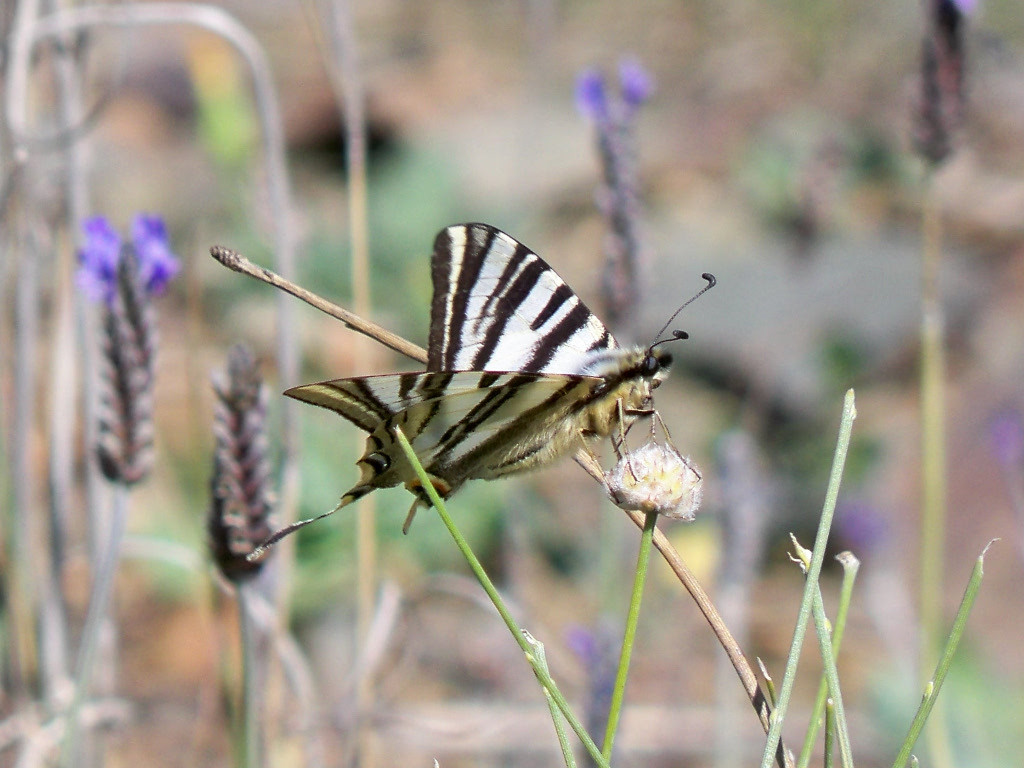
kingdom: Animalia
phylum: Arthropoda
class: Insecta
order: Lepidoptera
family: Papilionidae
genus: Iphiclides
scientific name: Iphiclides feisthamelii
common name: Iberian scarce swallowtail
